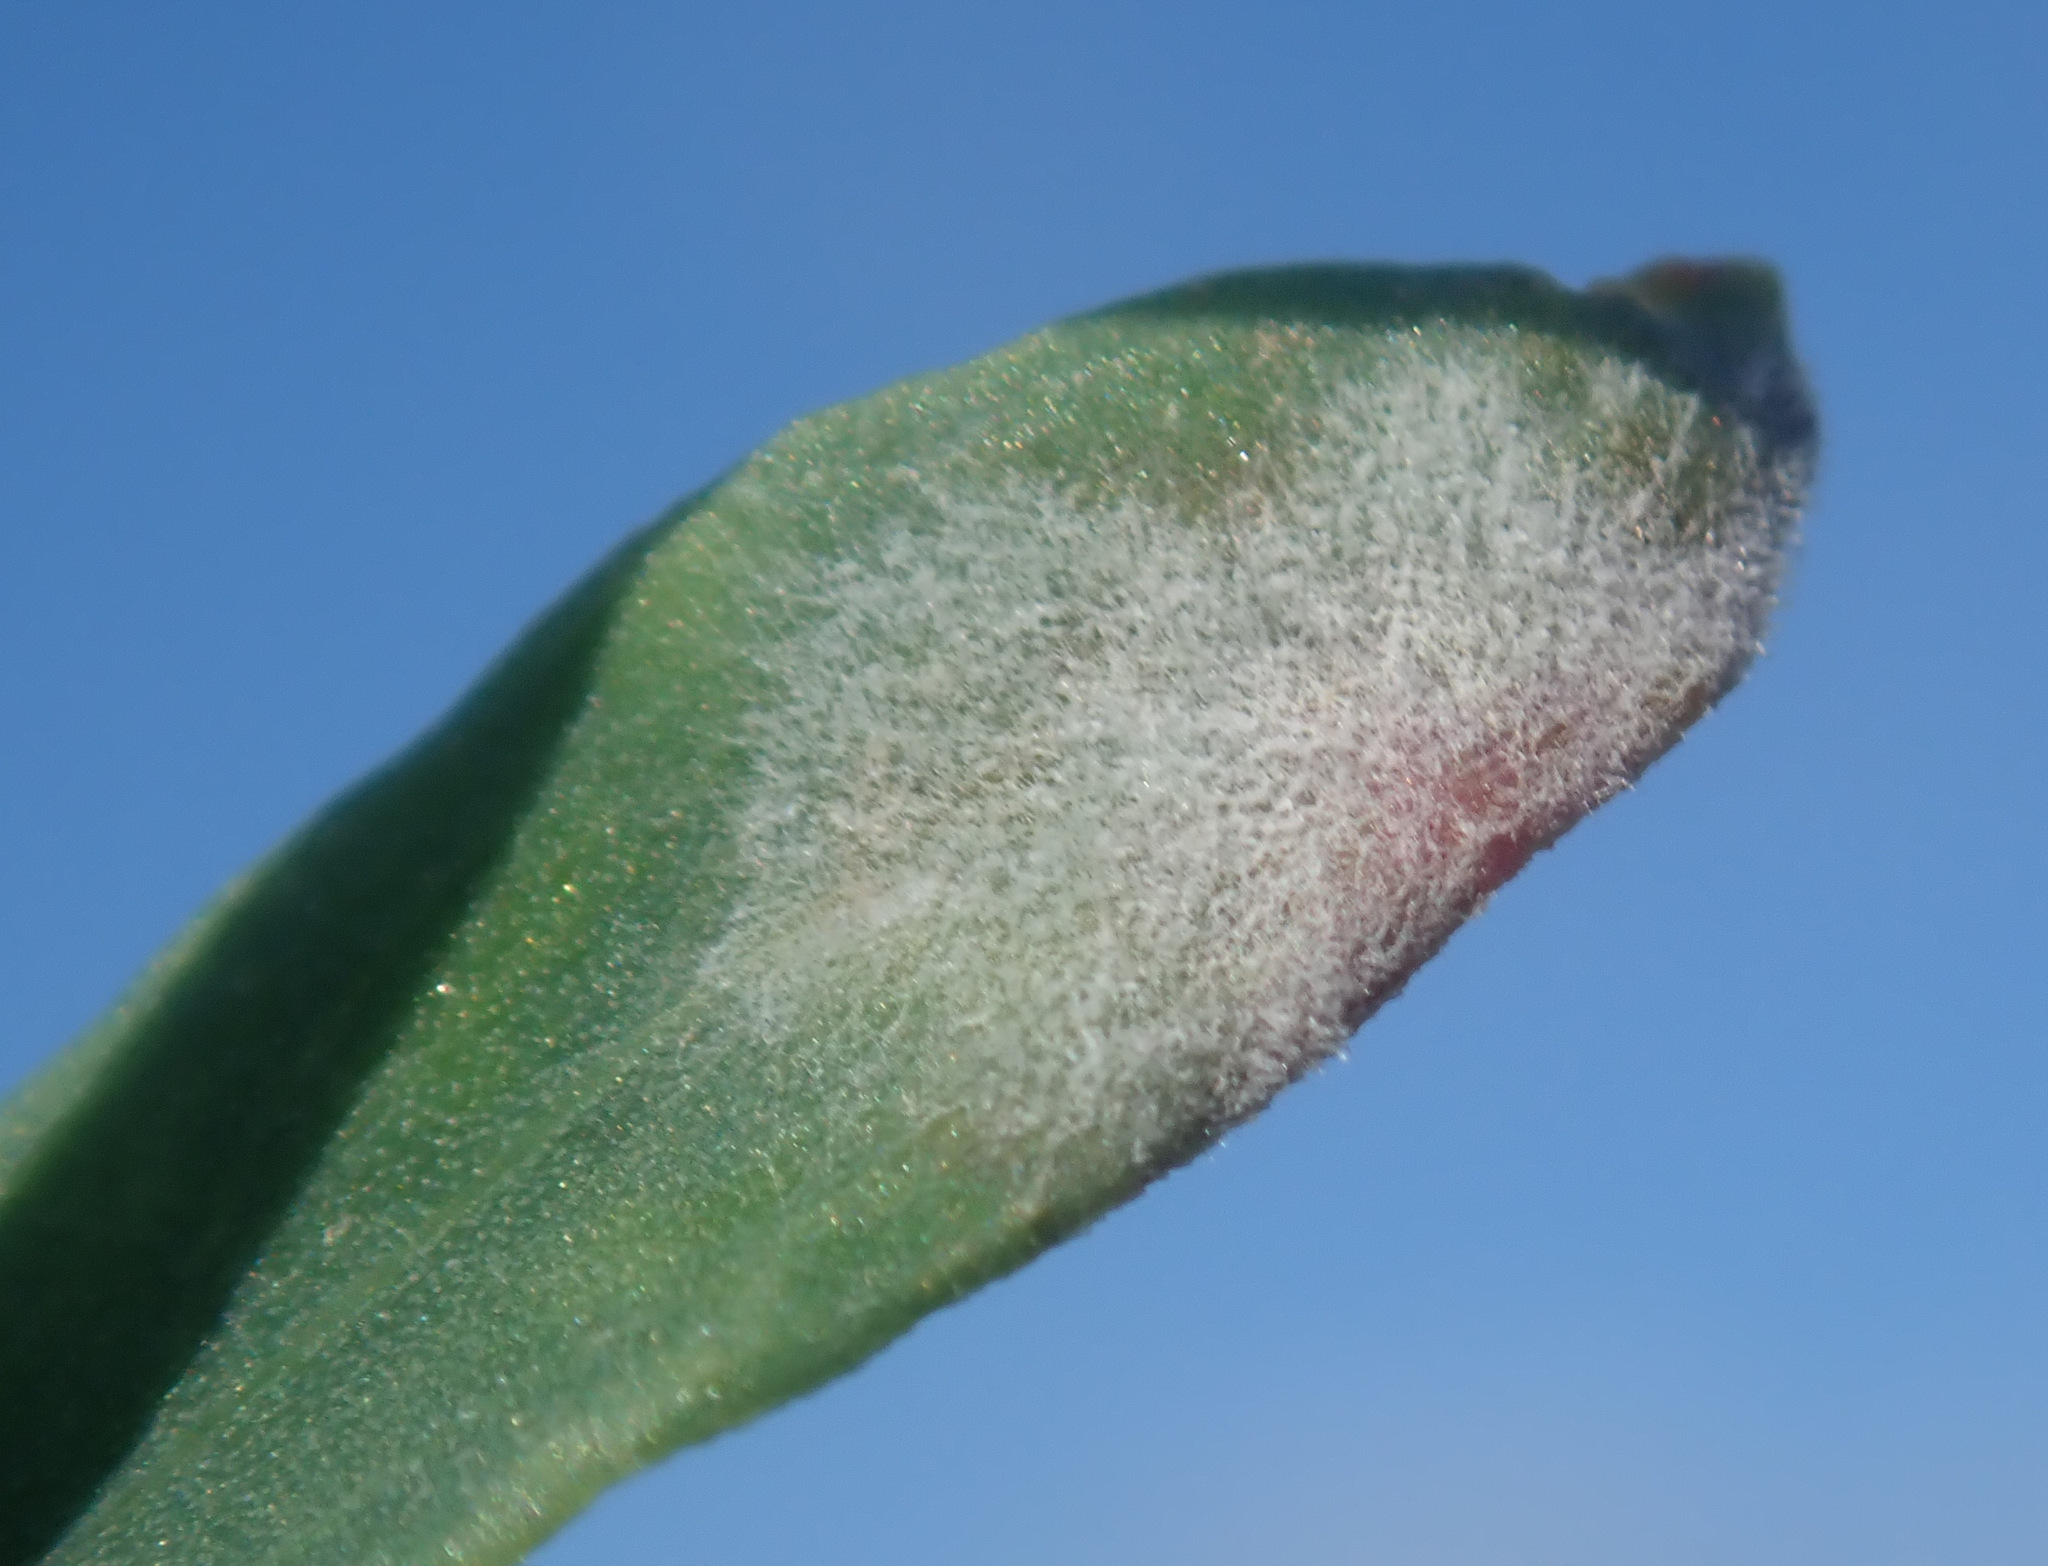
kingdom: Fungi
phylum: Ascomycota
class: Leotiomycetes
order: Helotiales
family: Erysiphaceae
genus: Erysiphe
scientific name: Erysiphe polygoni
